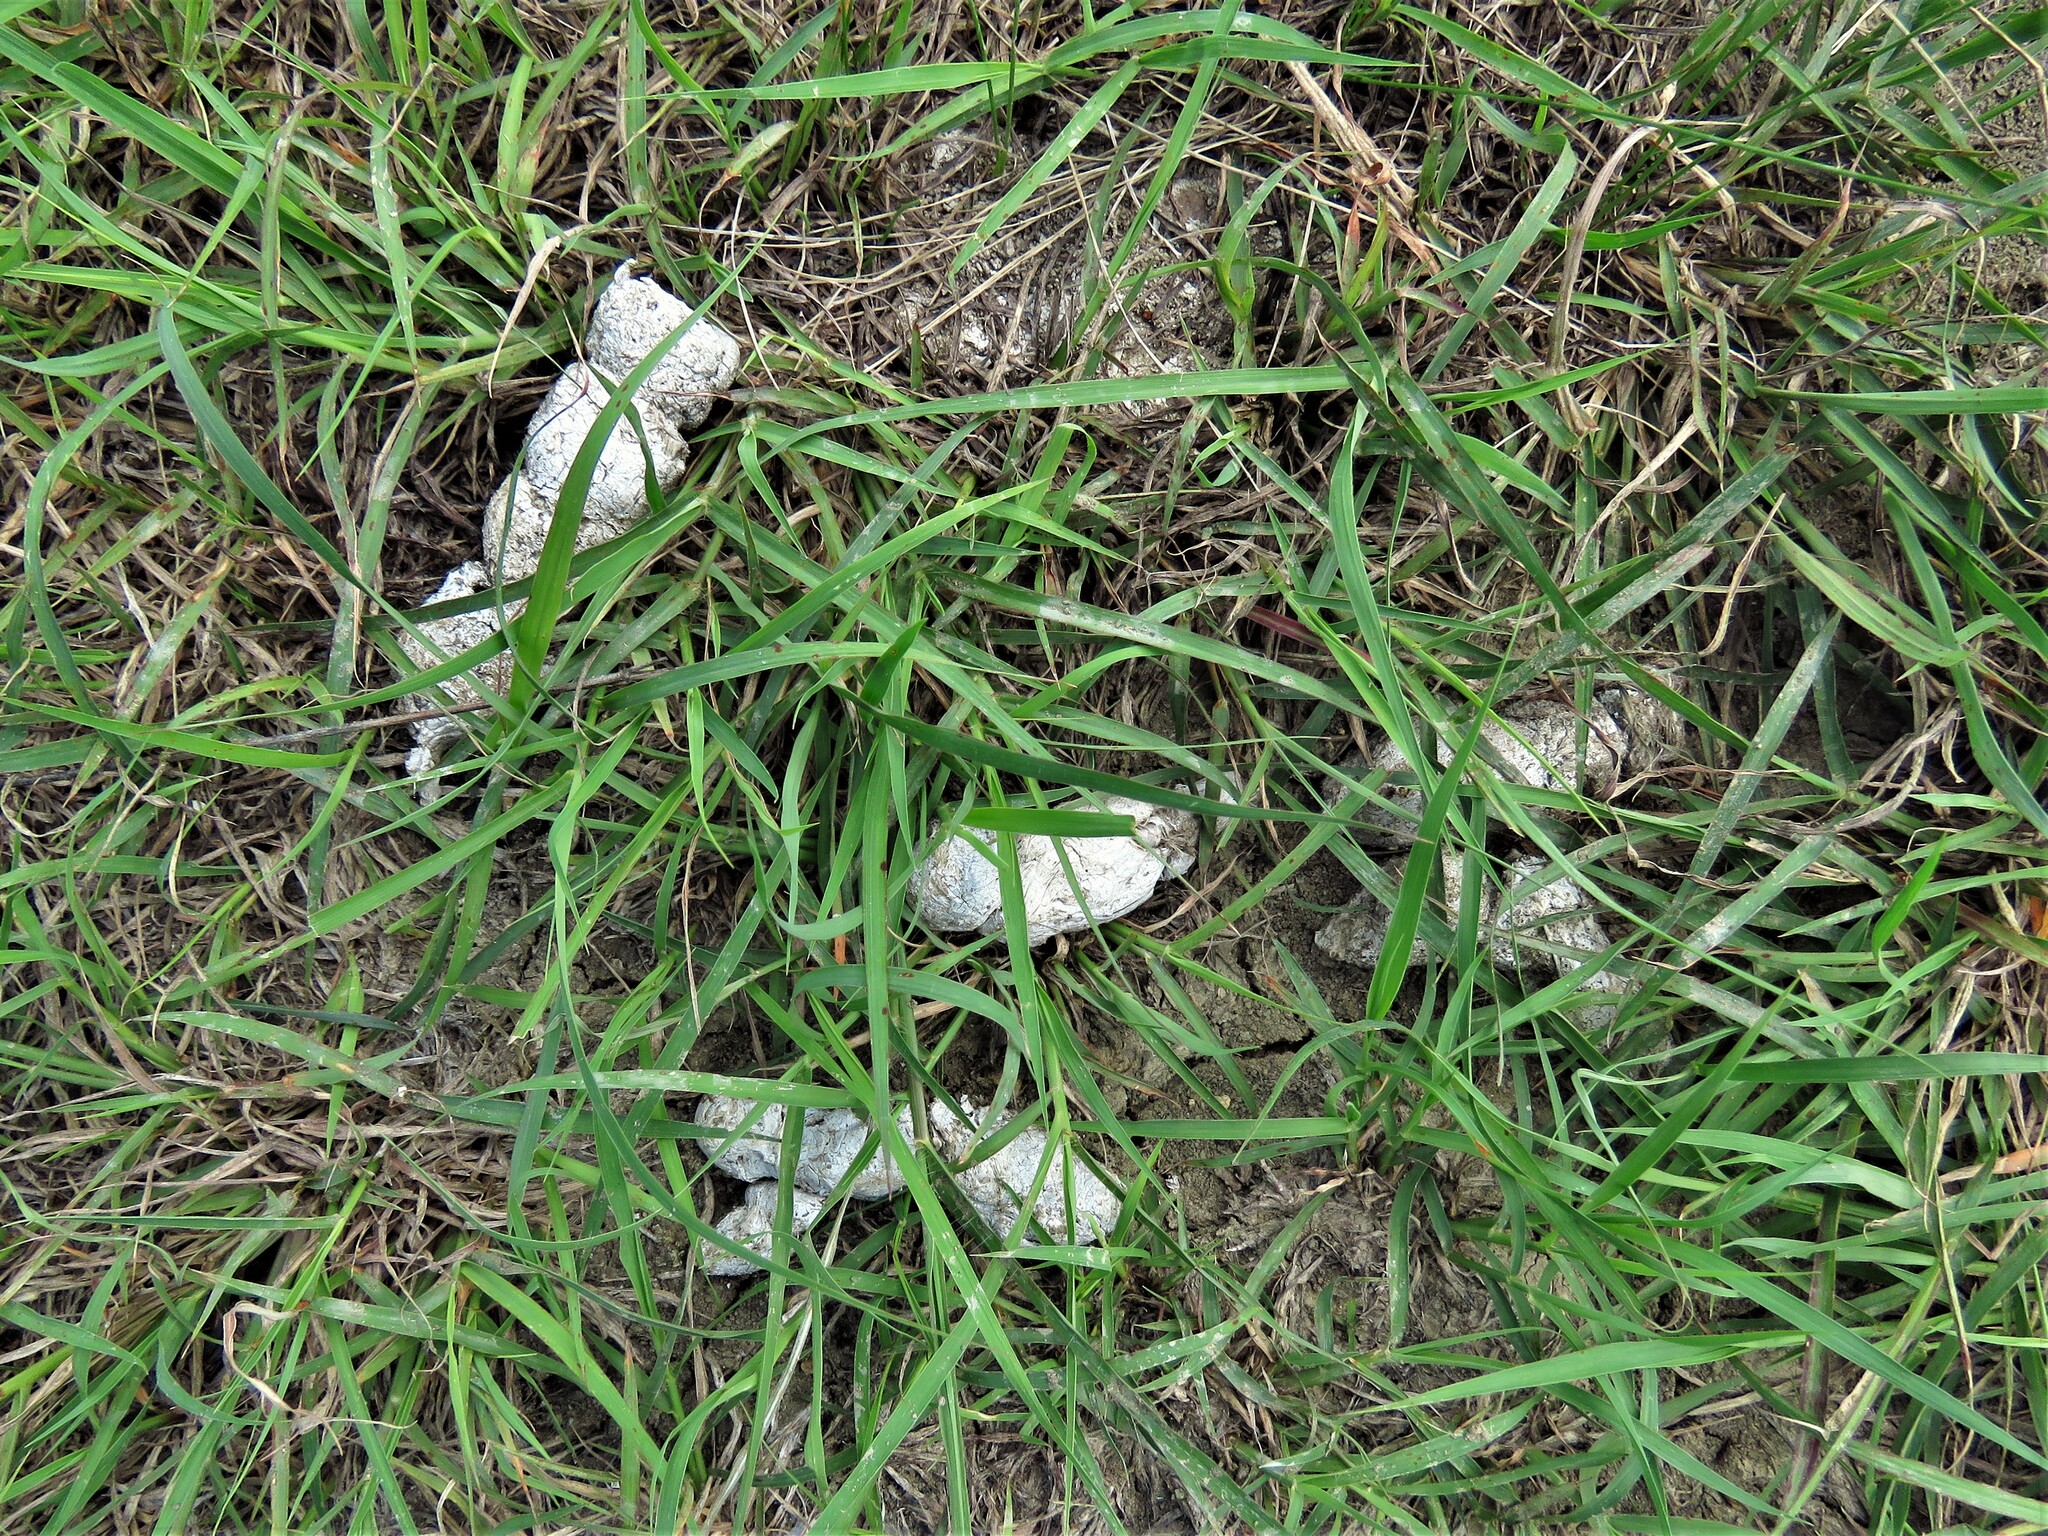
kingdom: Animalia
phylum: Chordata
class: Mammalia
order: Carnivora
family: Canidae
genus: Canis
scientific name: Canis latrans
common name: Coyote
